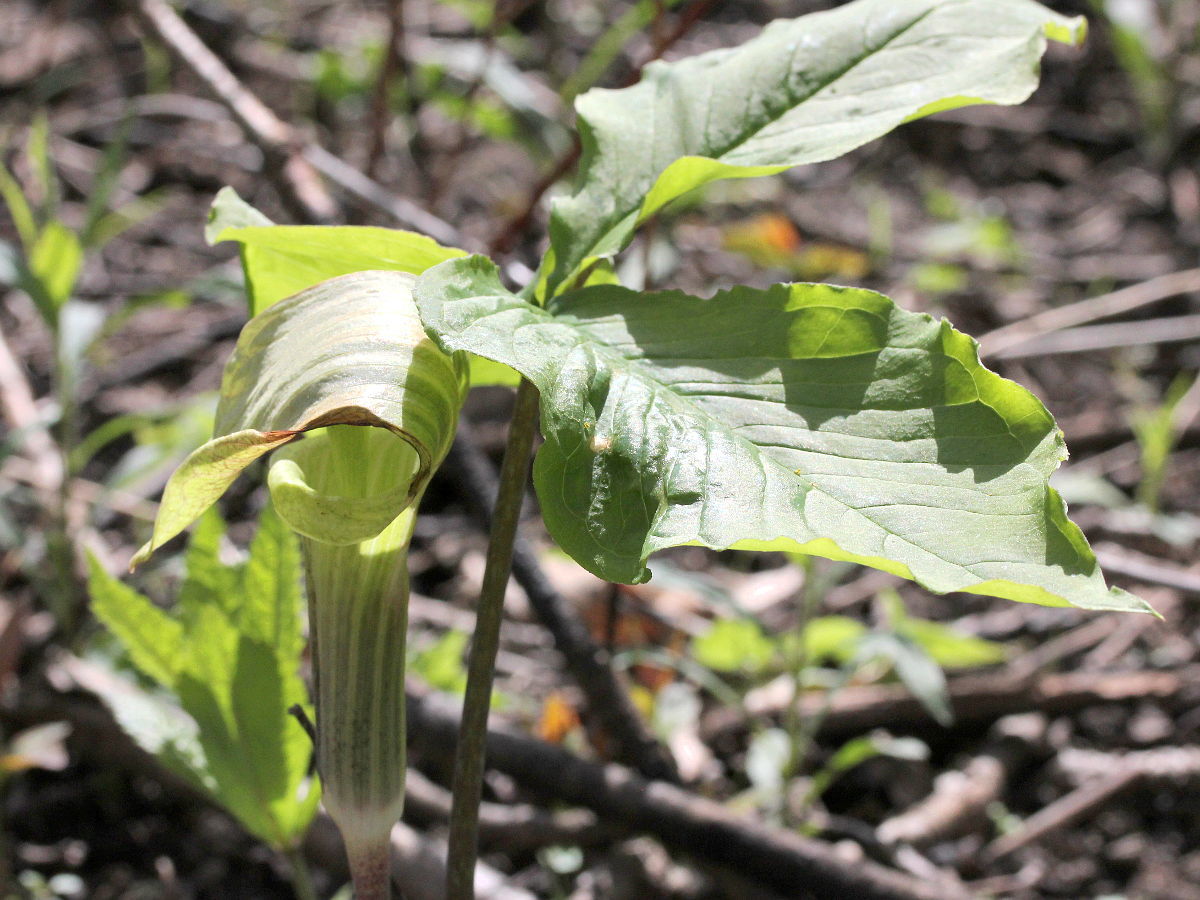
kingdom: Plantae
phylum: Tracheophyta
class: Liliopsida
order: Alismatales
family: Araceae
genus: Arisaema
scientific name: Arisaema triphyllum
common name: Jack-in-the-pulpit
